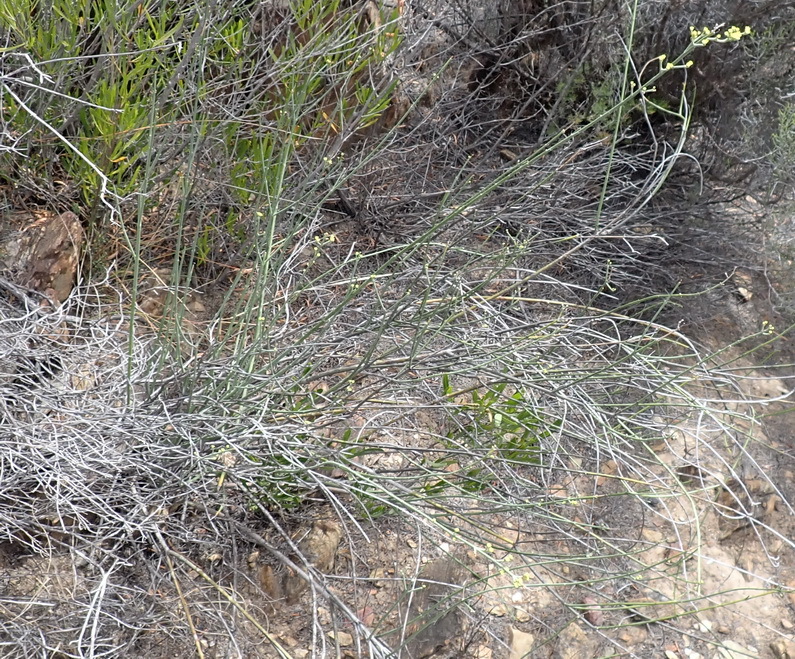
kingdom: Plantae
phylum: Tracheophyta
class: Magnoliopsida
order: Malpighiales
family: Euphorbiaceae
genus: Euphorbia
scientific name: Euphorbia rhombifolia
